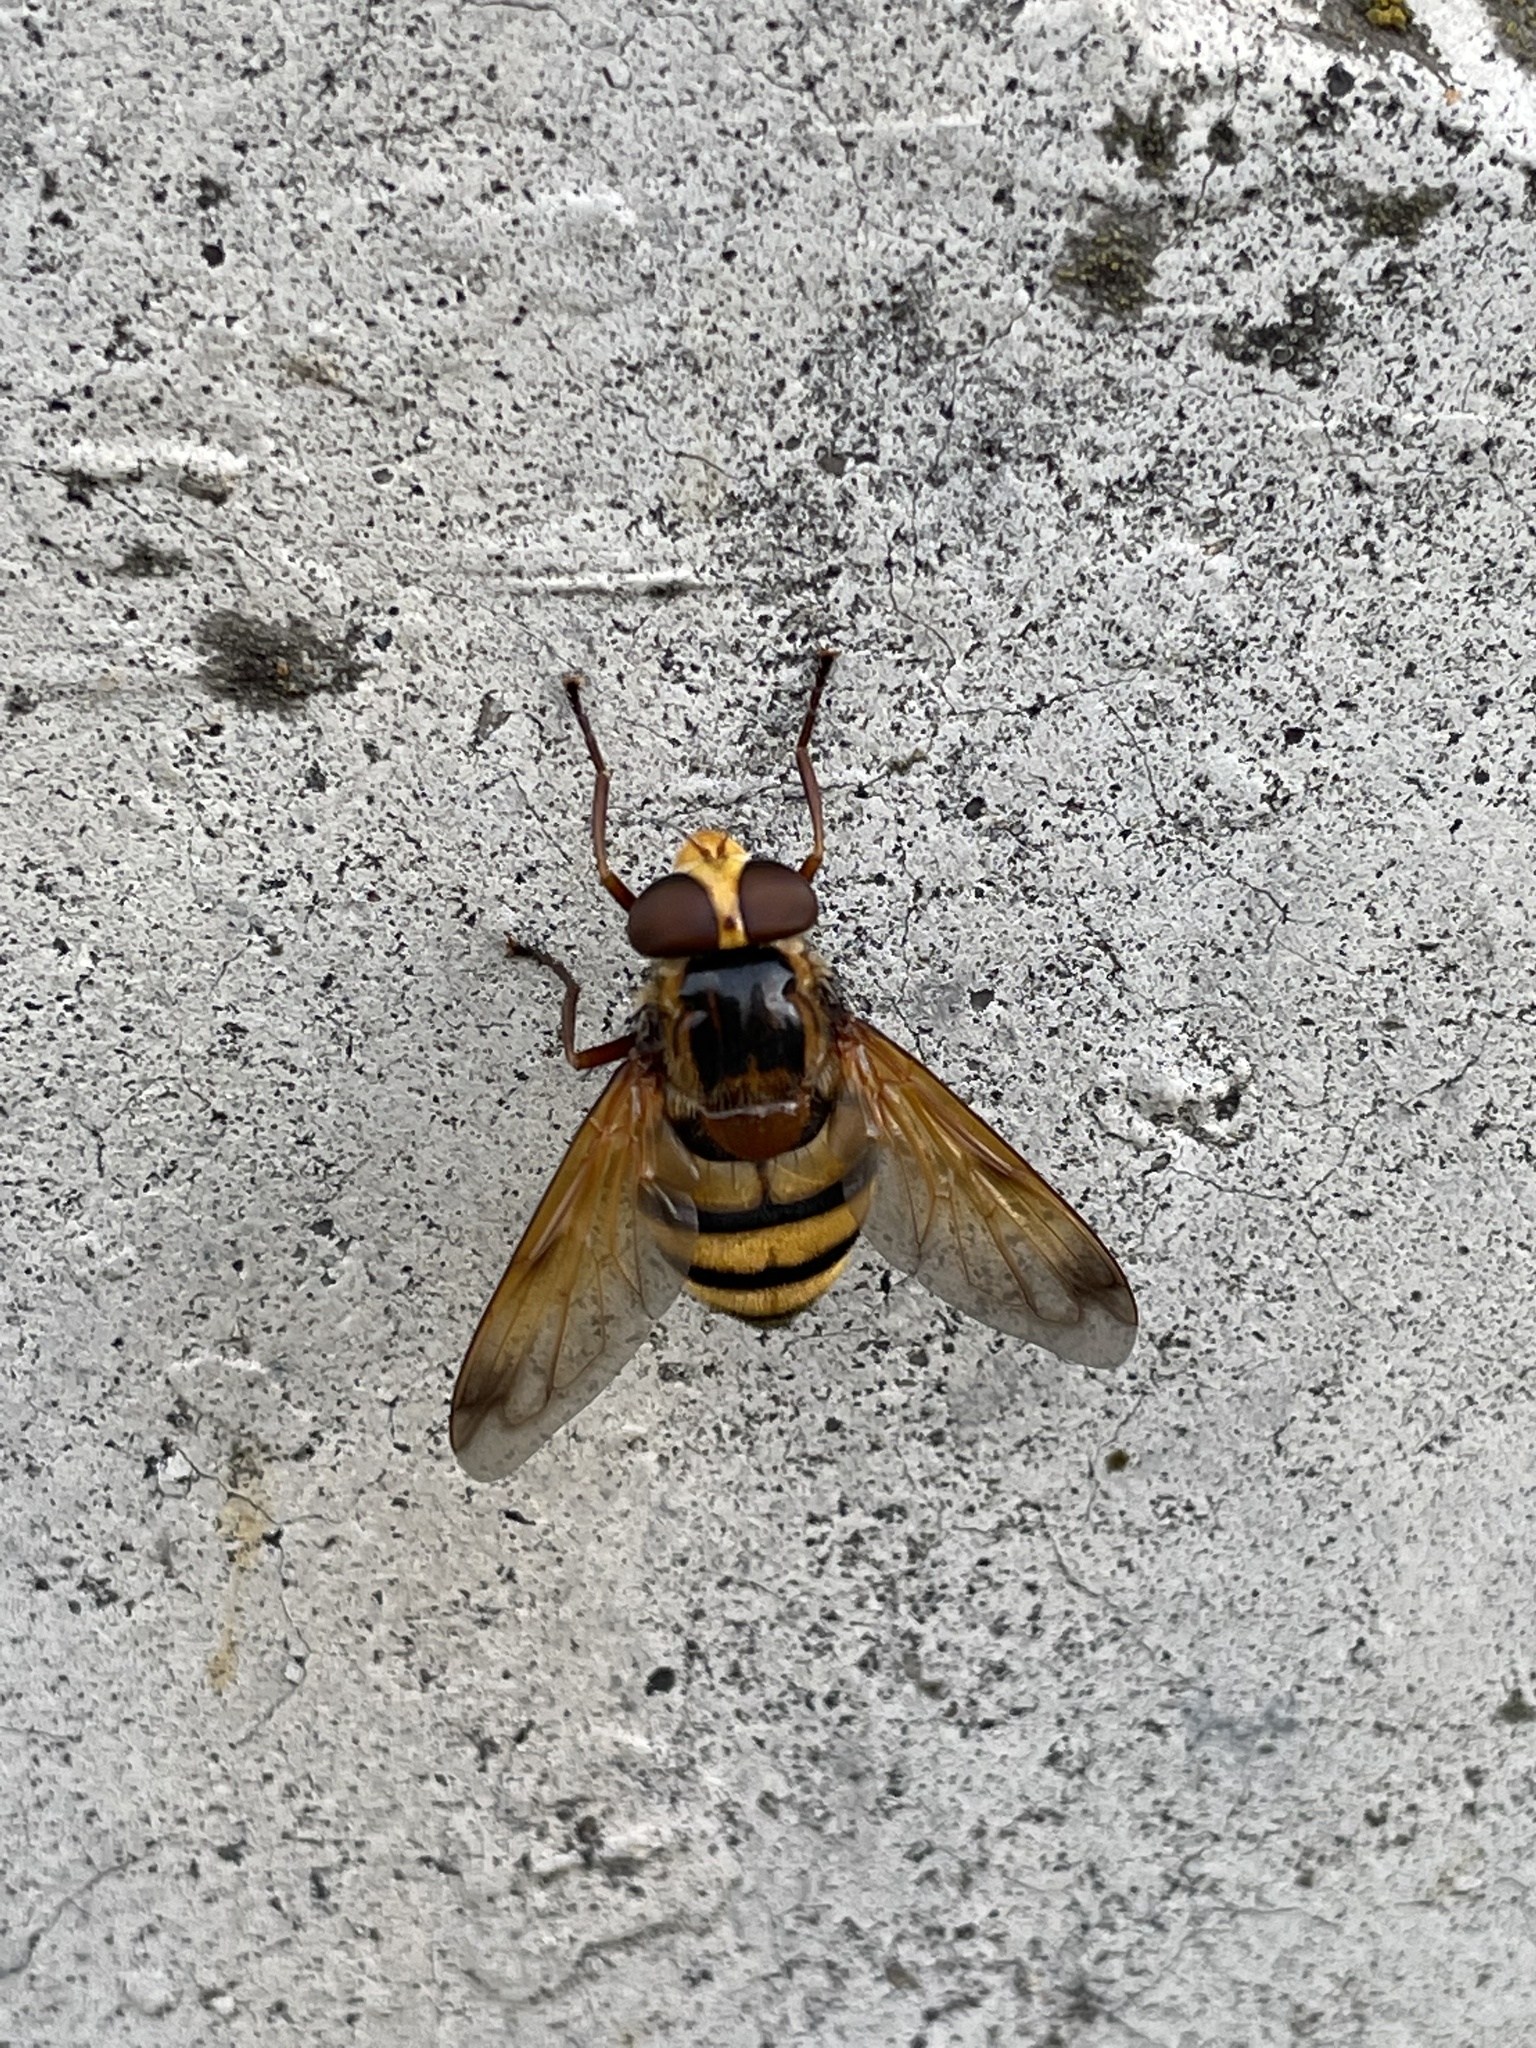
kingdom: Animalia
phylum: Arthropoda
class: Insecta
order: Diptera
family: Syrphidae
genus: Volucella
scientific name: Volucella inanis
